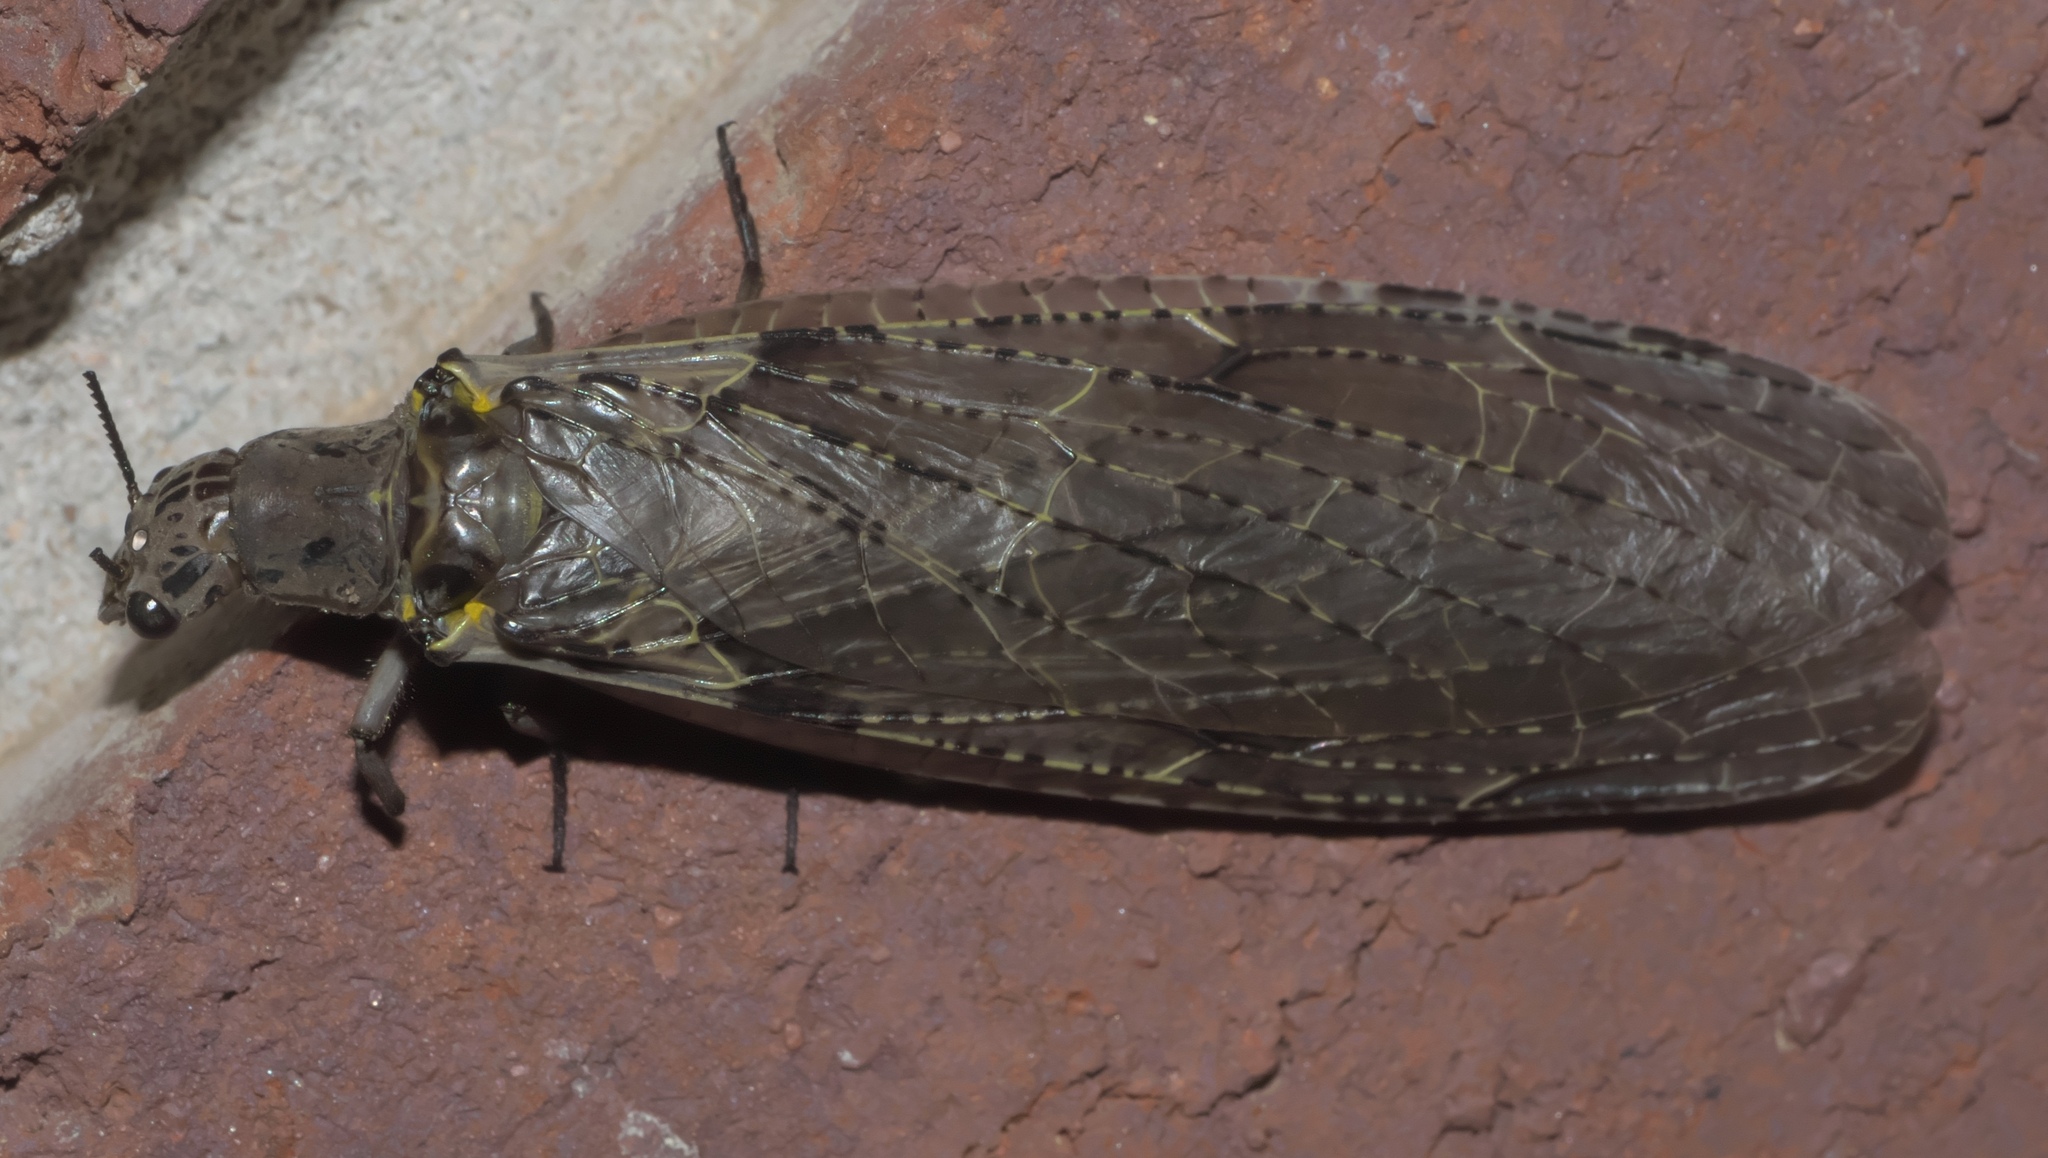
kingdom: Animalia
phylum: Arthropoda
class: Insecta
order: Megaloptera
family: Corydalidae
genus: Chauliodes
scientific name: Chauliodes rastricornis
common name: Spring fishfly
